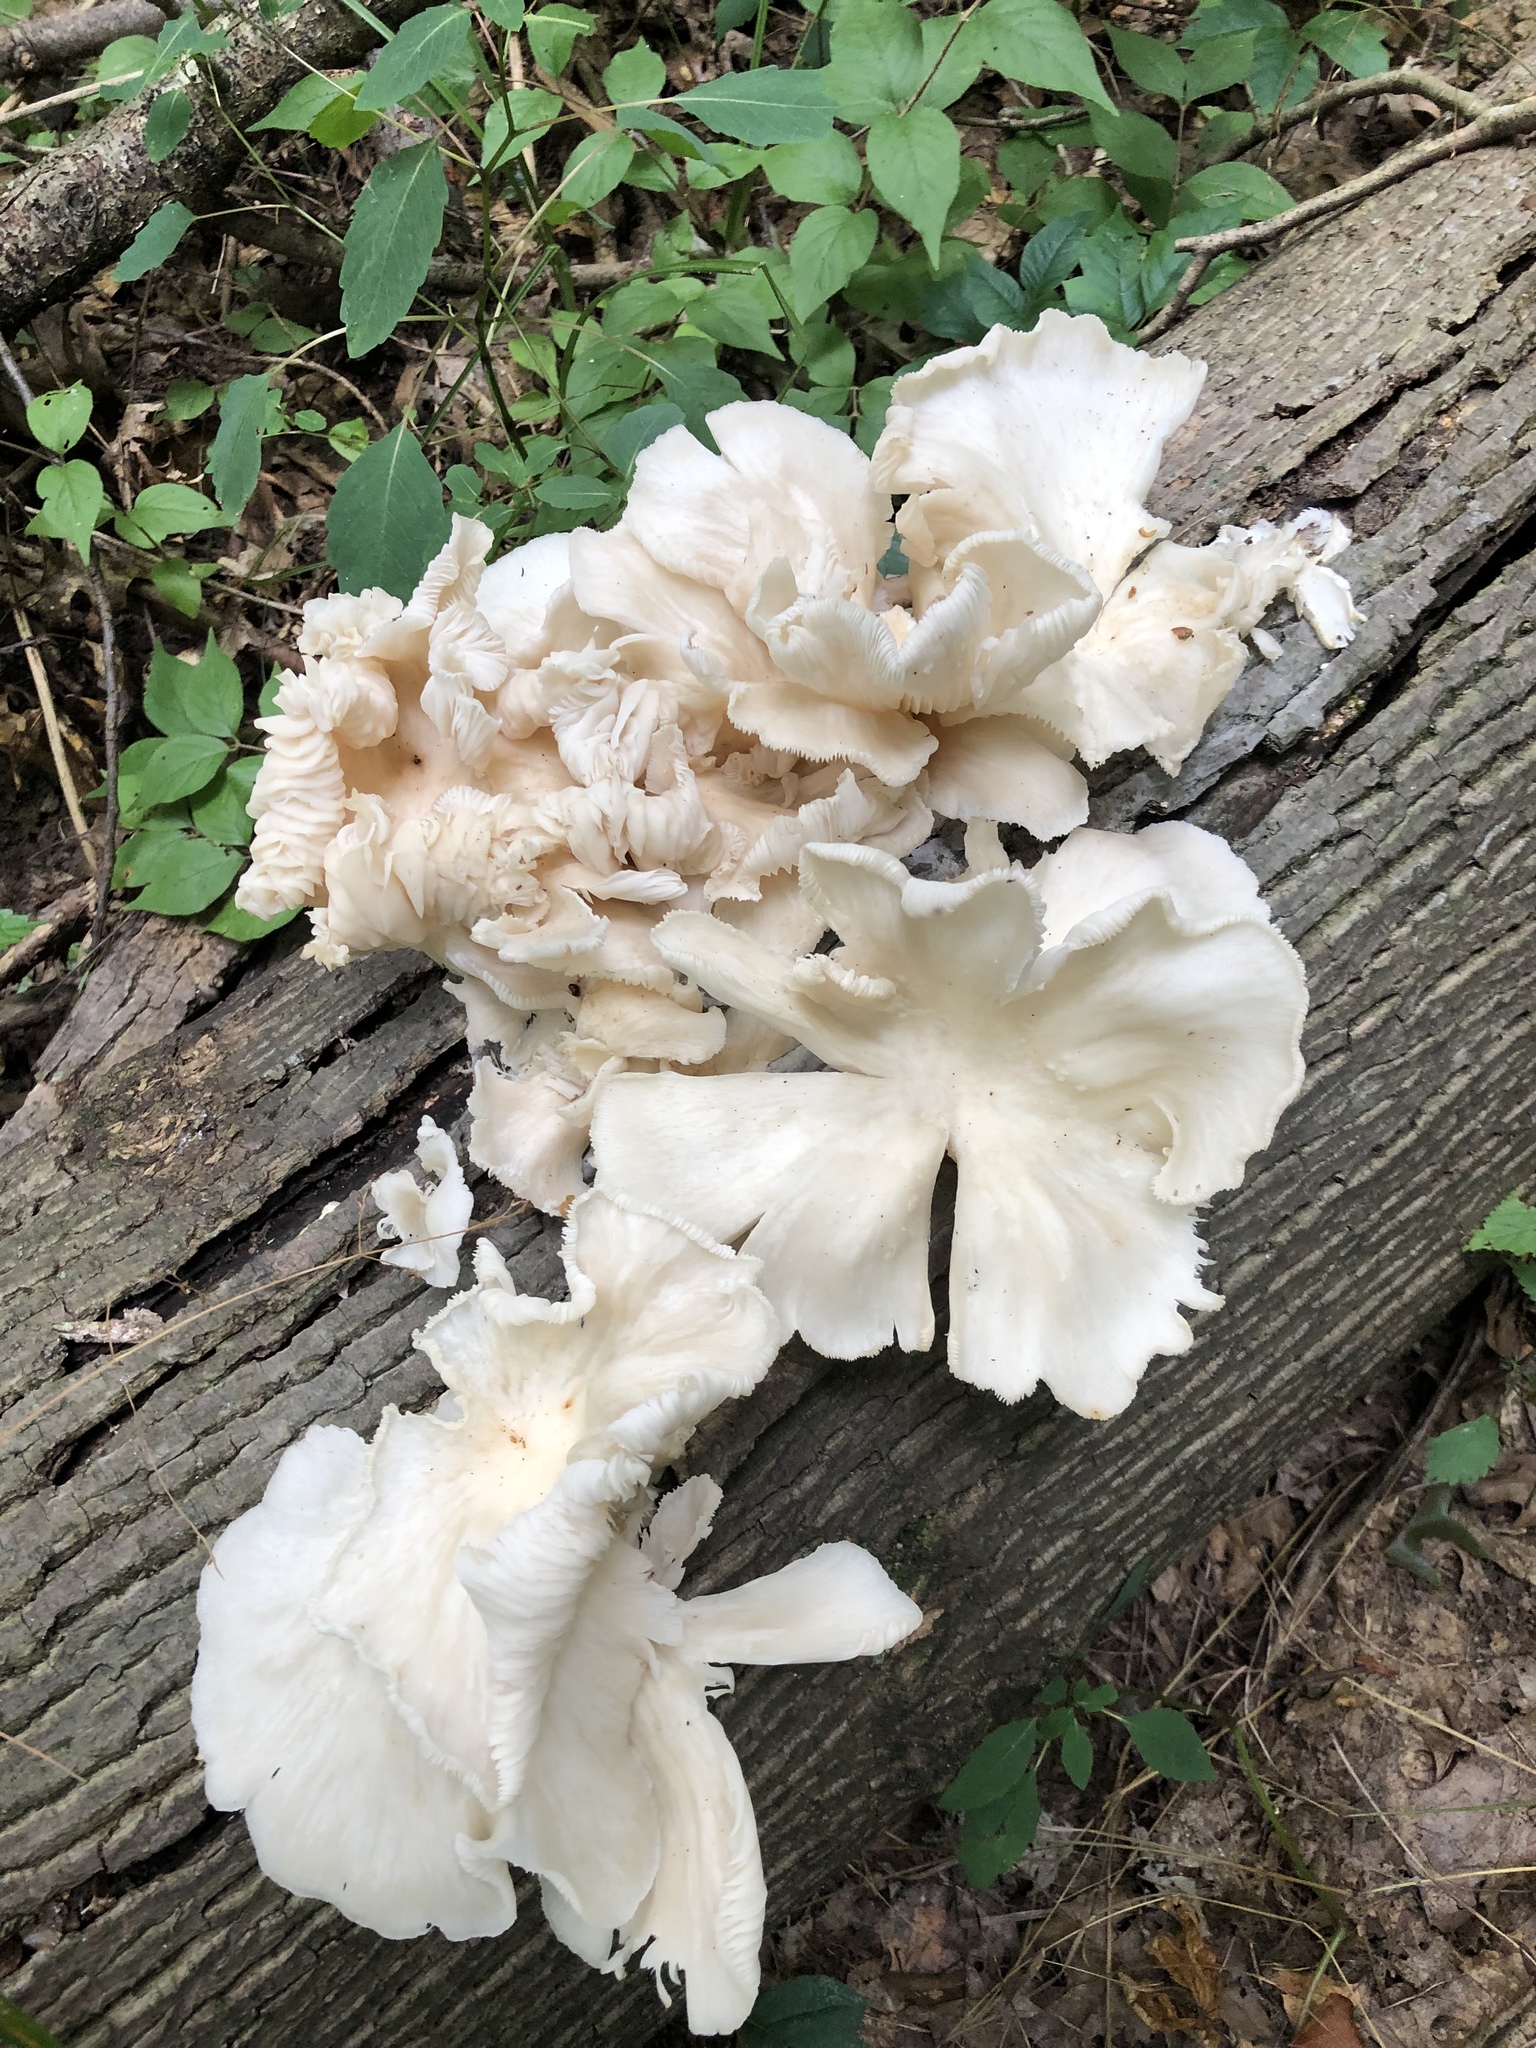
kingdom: Fungi
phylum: Basidiomycota
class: Agaricomycetes
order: Agaricales
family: Pleurotaceae
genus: Pleurotus
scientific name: Pleurotus pulmonarius
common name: Pale oyster
